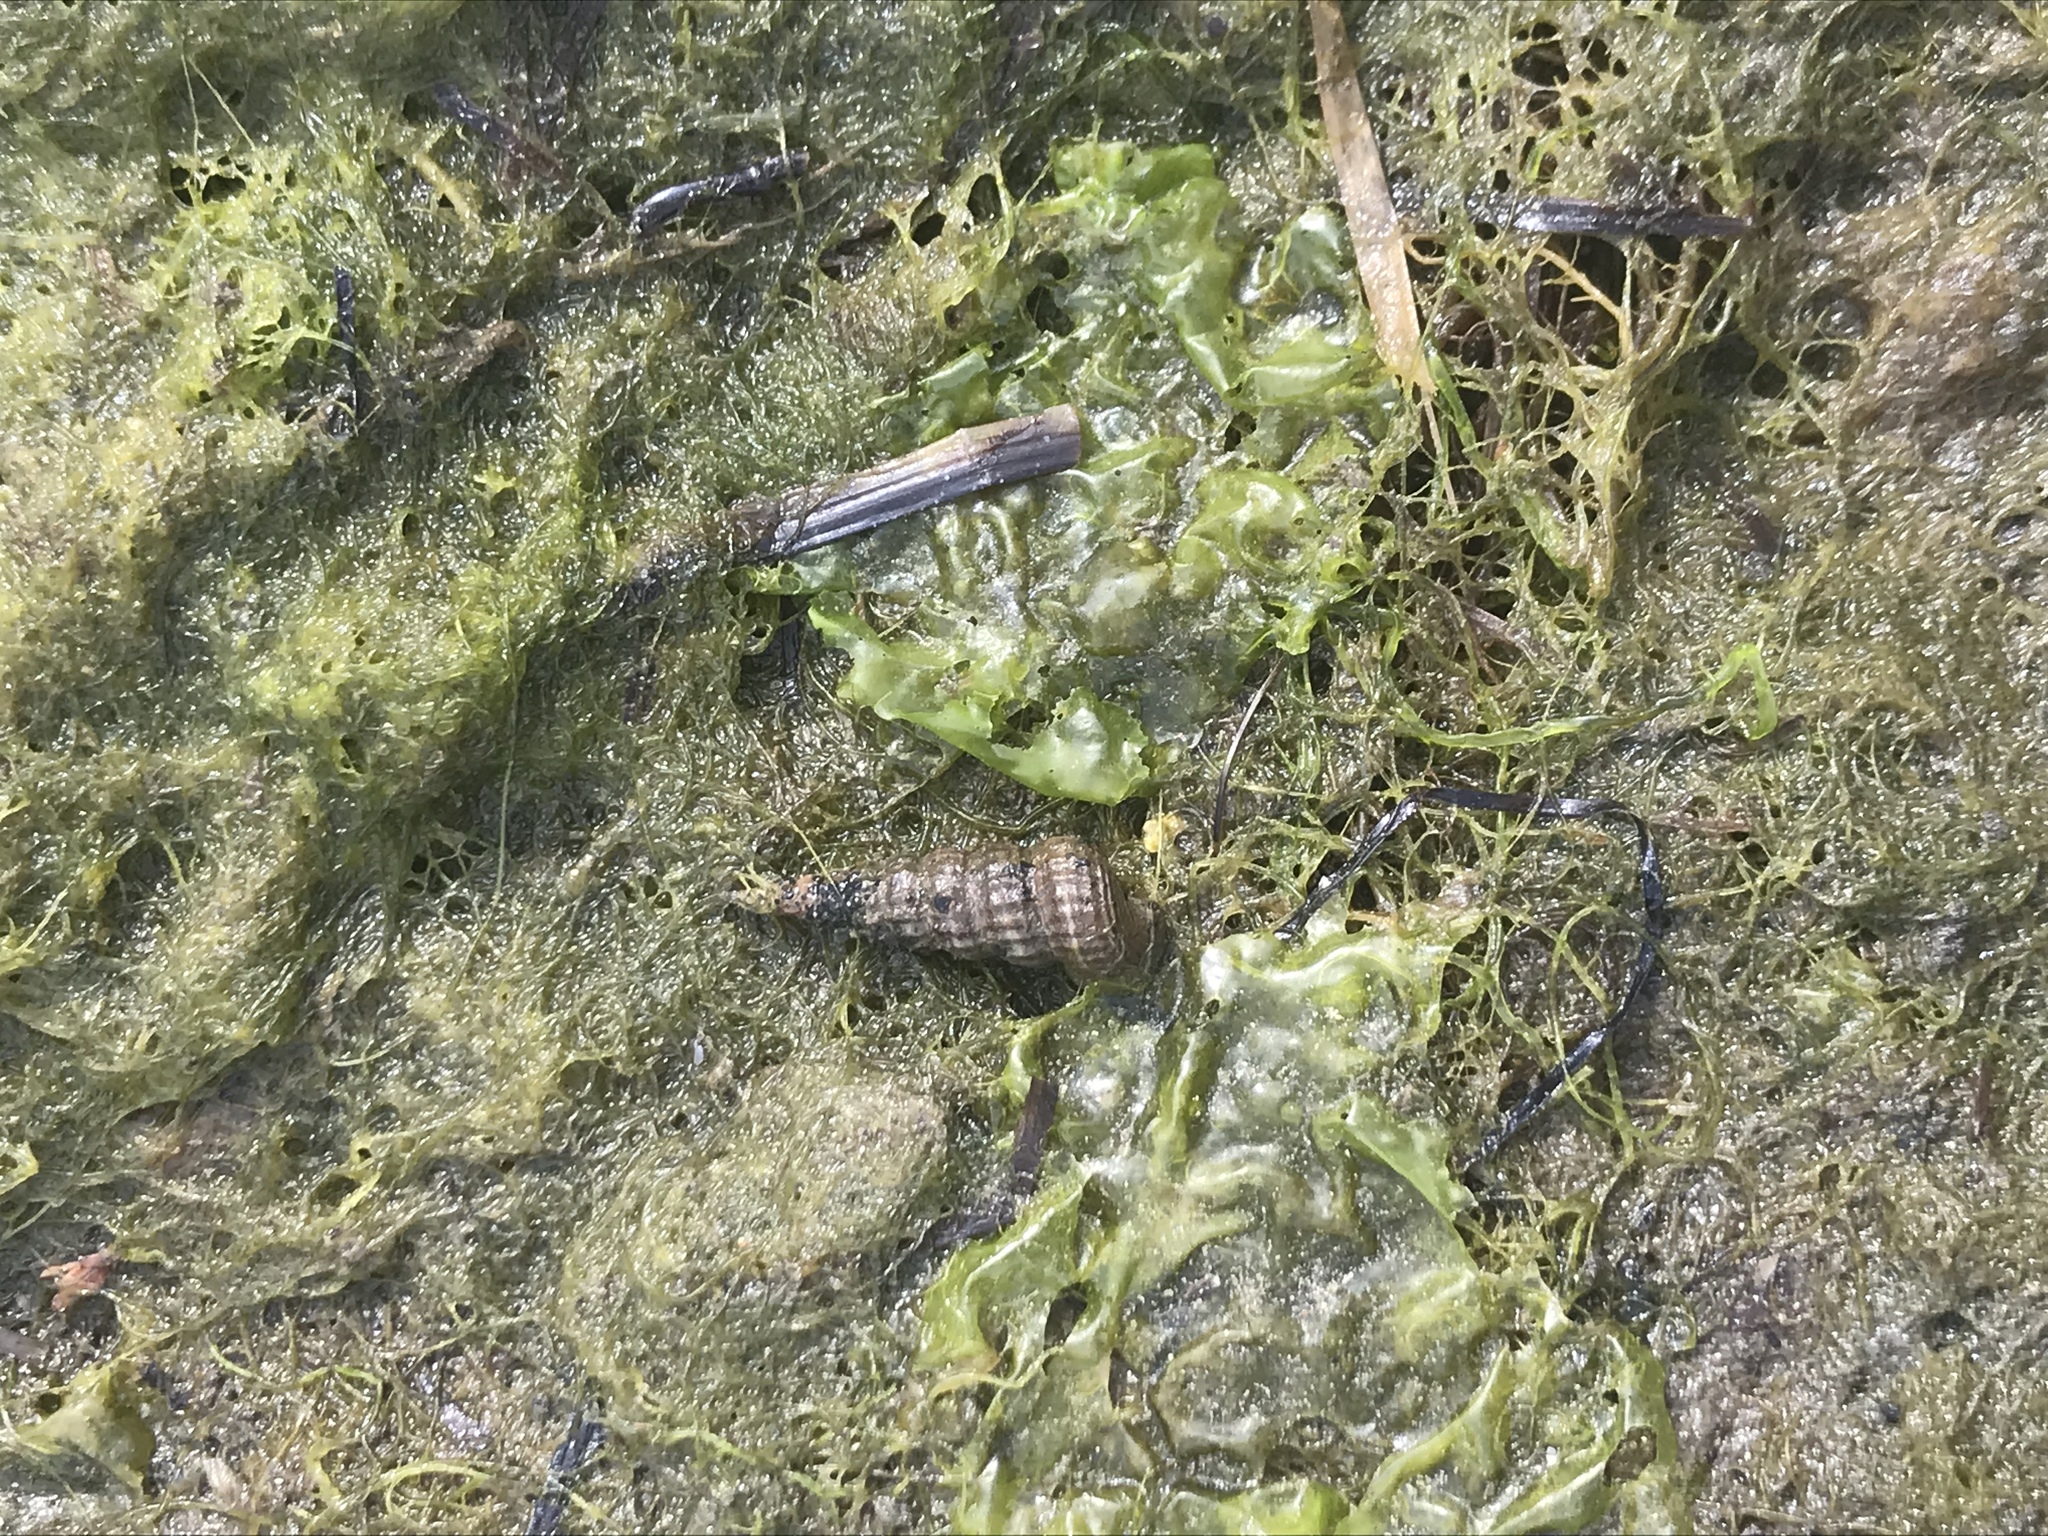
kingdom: Animalia
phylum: Mollusca
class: Gastropoda
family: Potamididae
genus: Cerithideopsis
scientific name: Cerithideopsis californica
